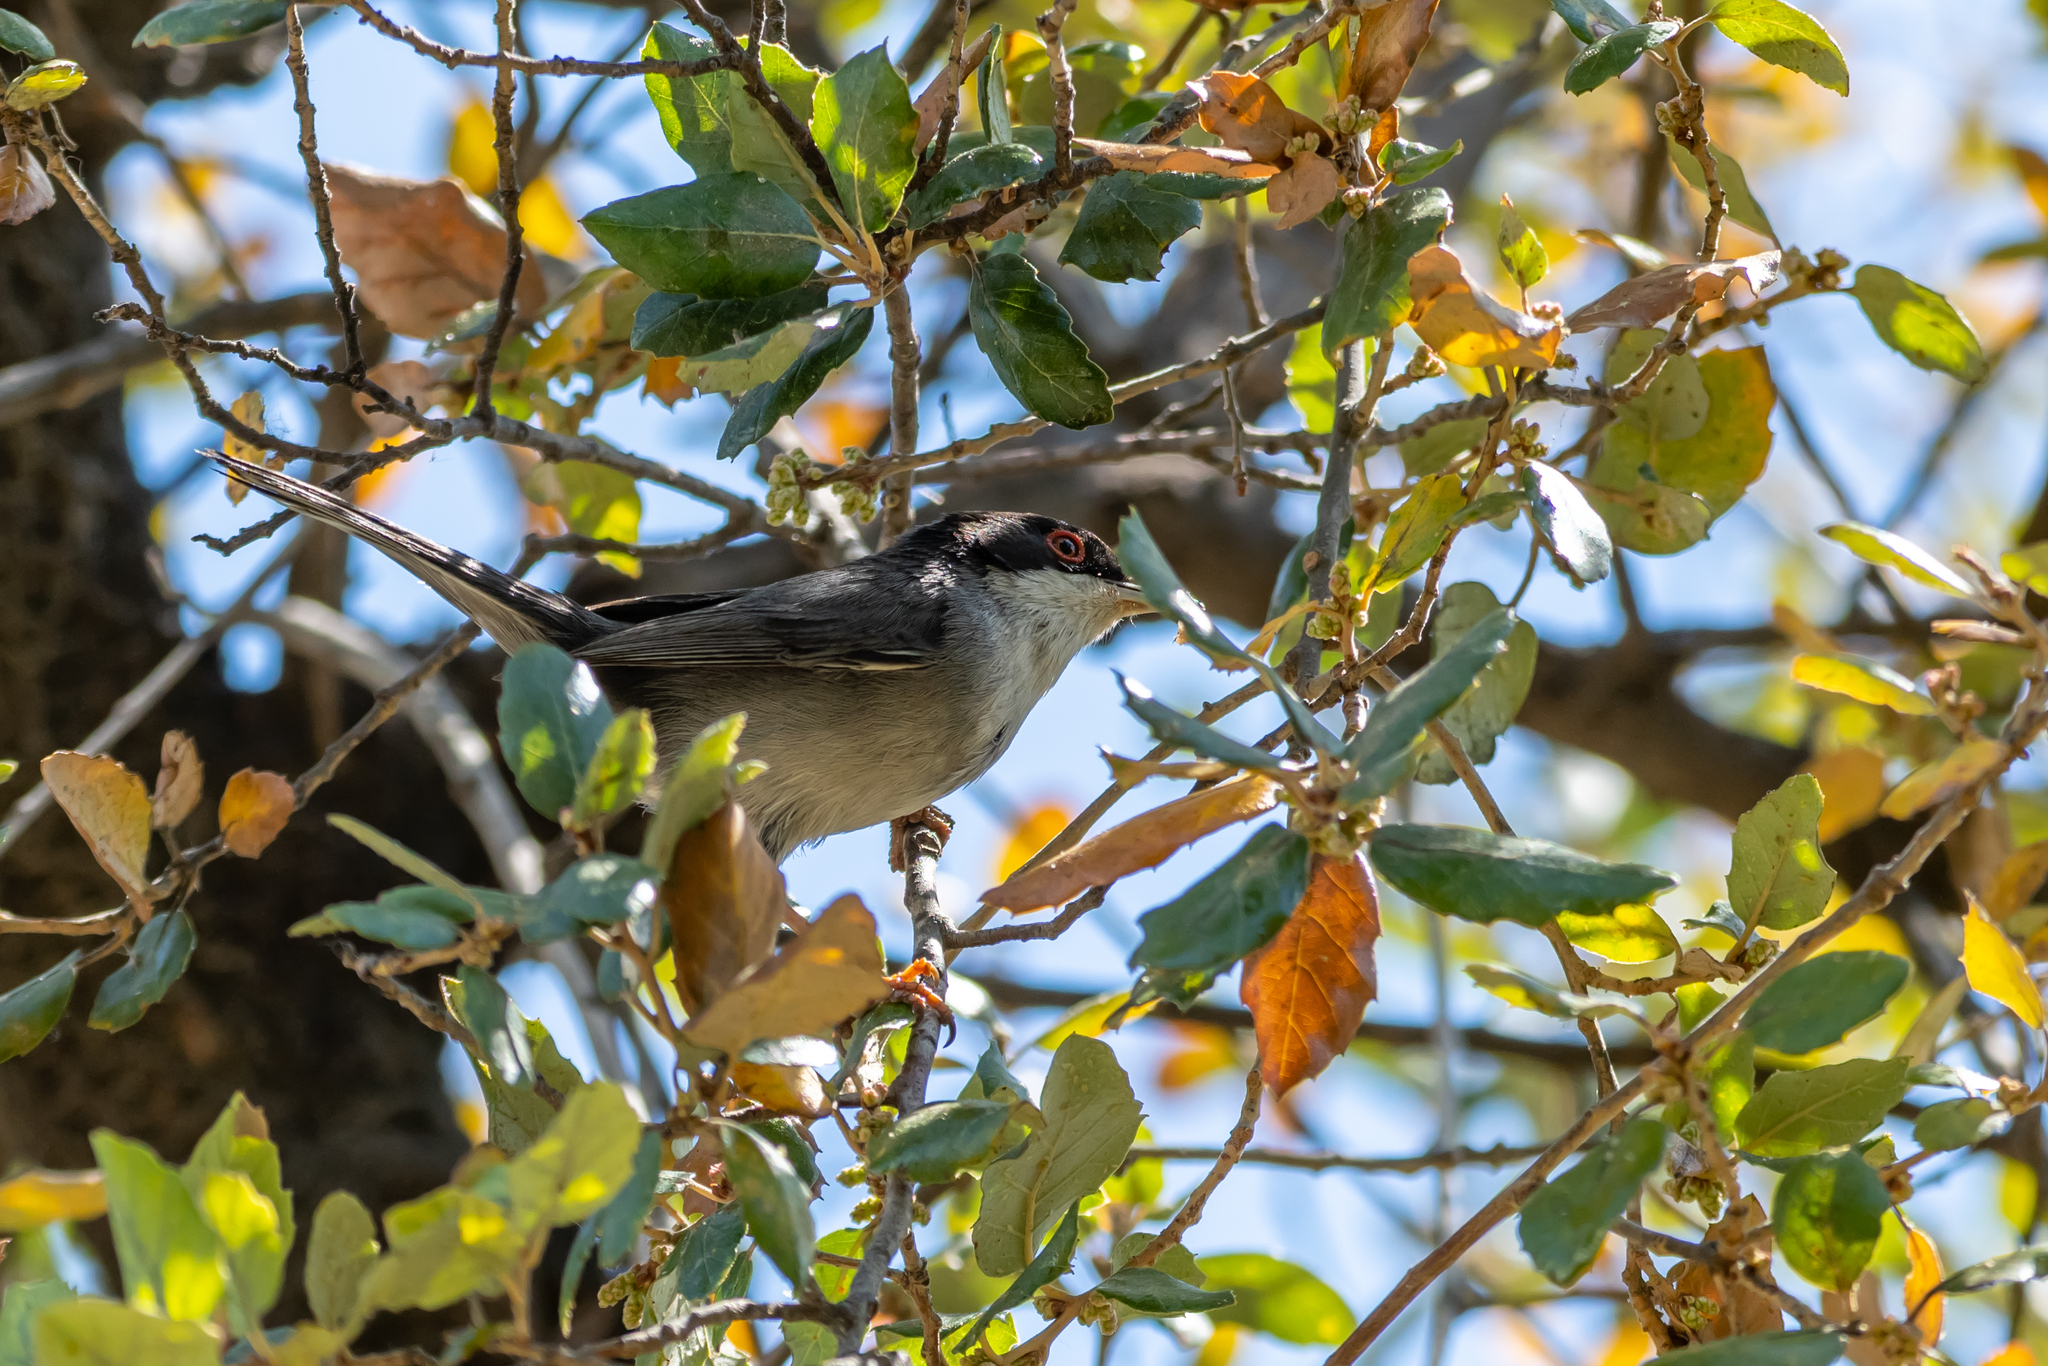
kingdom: Animalia
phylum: Chordata
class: Aves
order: Passeriformes
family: Sylviidae
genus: Curruca
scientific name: Curruca melanocephala
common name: Sardinian warbler
